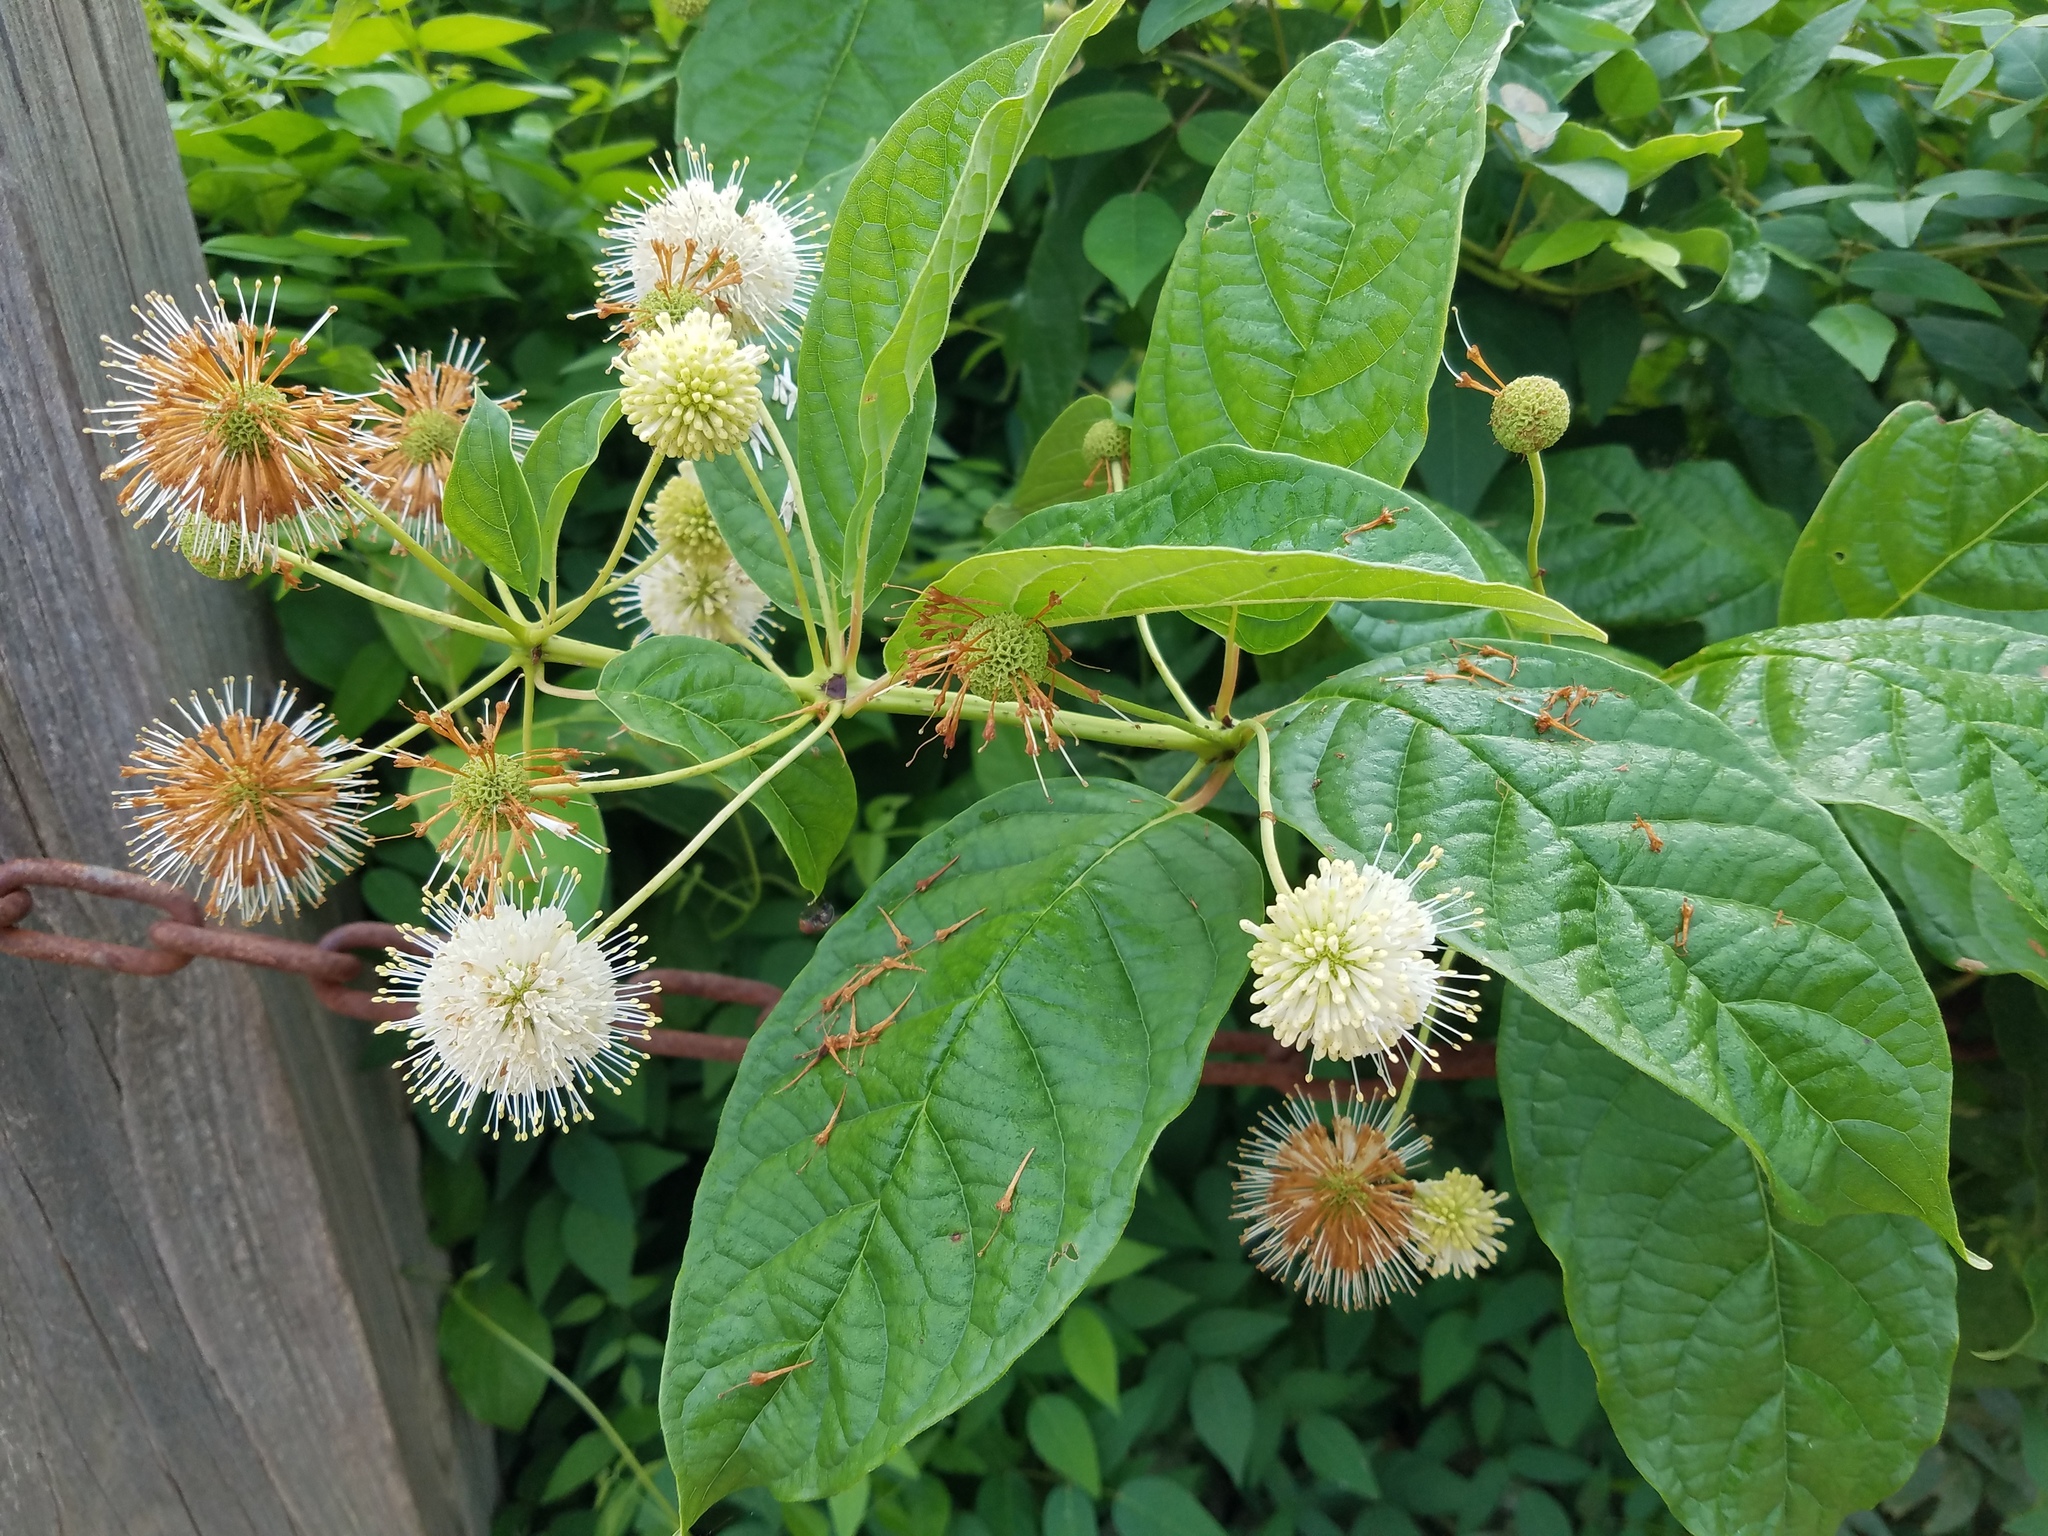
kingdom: Plantae
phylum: Tracheophyta
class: Magnoliopsida
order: Gentianales
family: Rubiaceae
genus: Cephalanthus
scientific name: Cephalanthus occidentalis
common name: Button-willow
